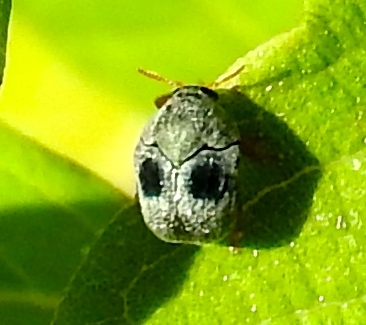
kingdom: Animalia
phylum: Arthropoda
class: Insecta
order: Coleoptera
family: Chrysomelidae
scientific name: Chrysomelidae
